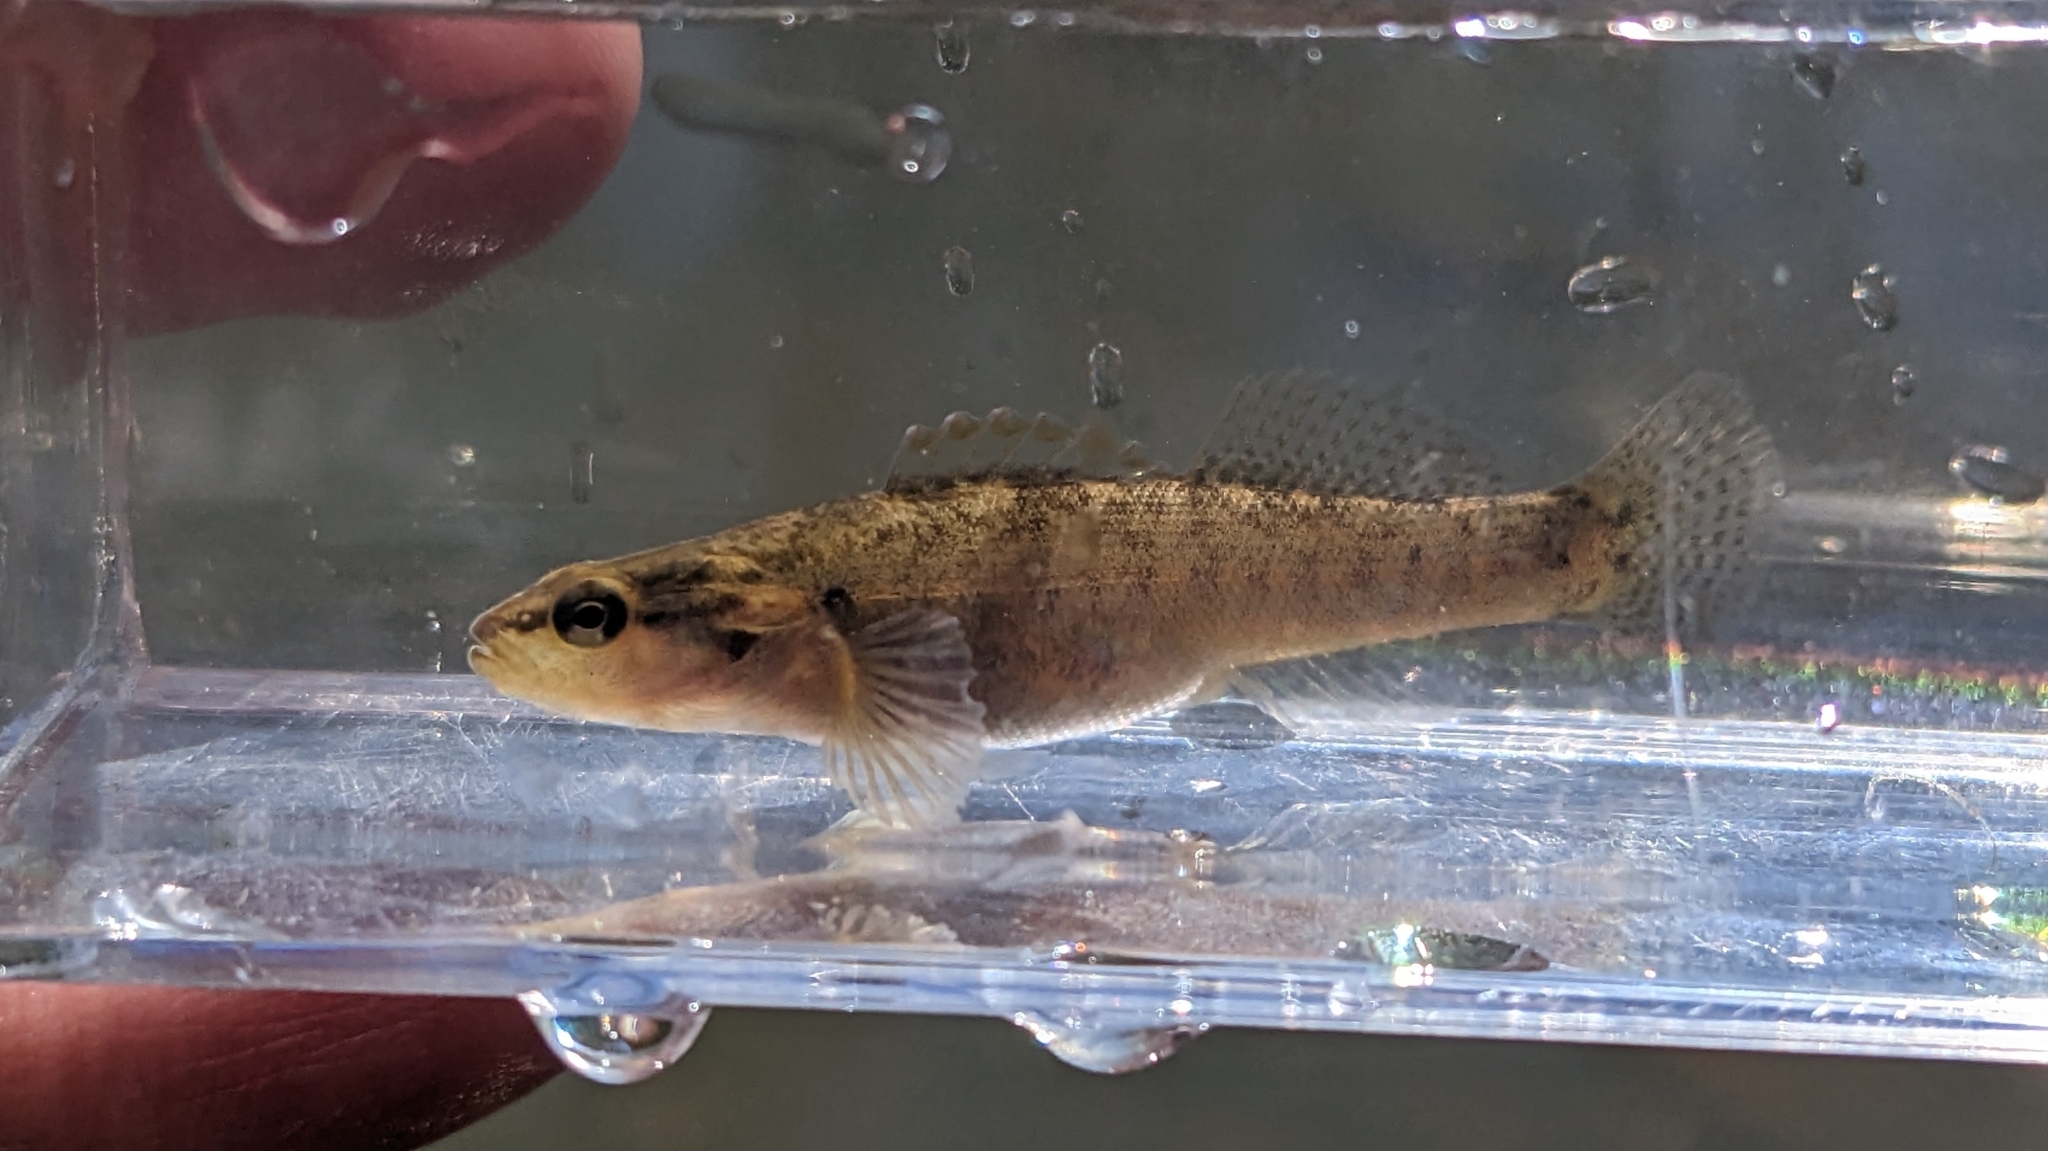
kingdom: Animalia
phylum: Chordata
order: Perciformes
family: Percidae
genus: Etheostoma
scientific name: Etheostoma flabellare
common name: Fantail darter
